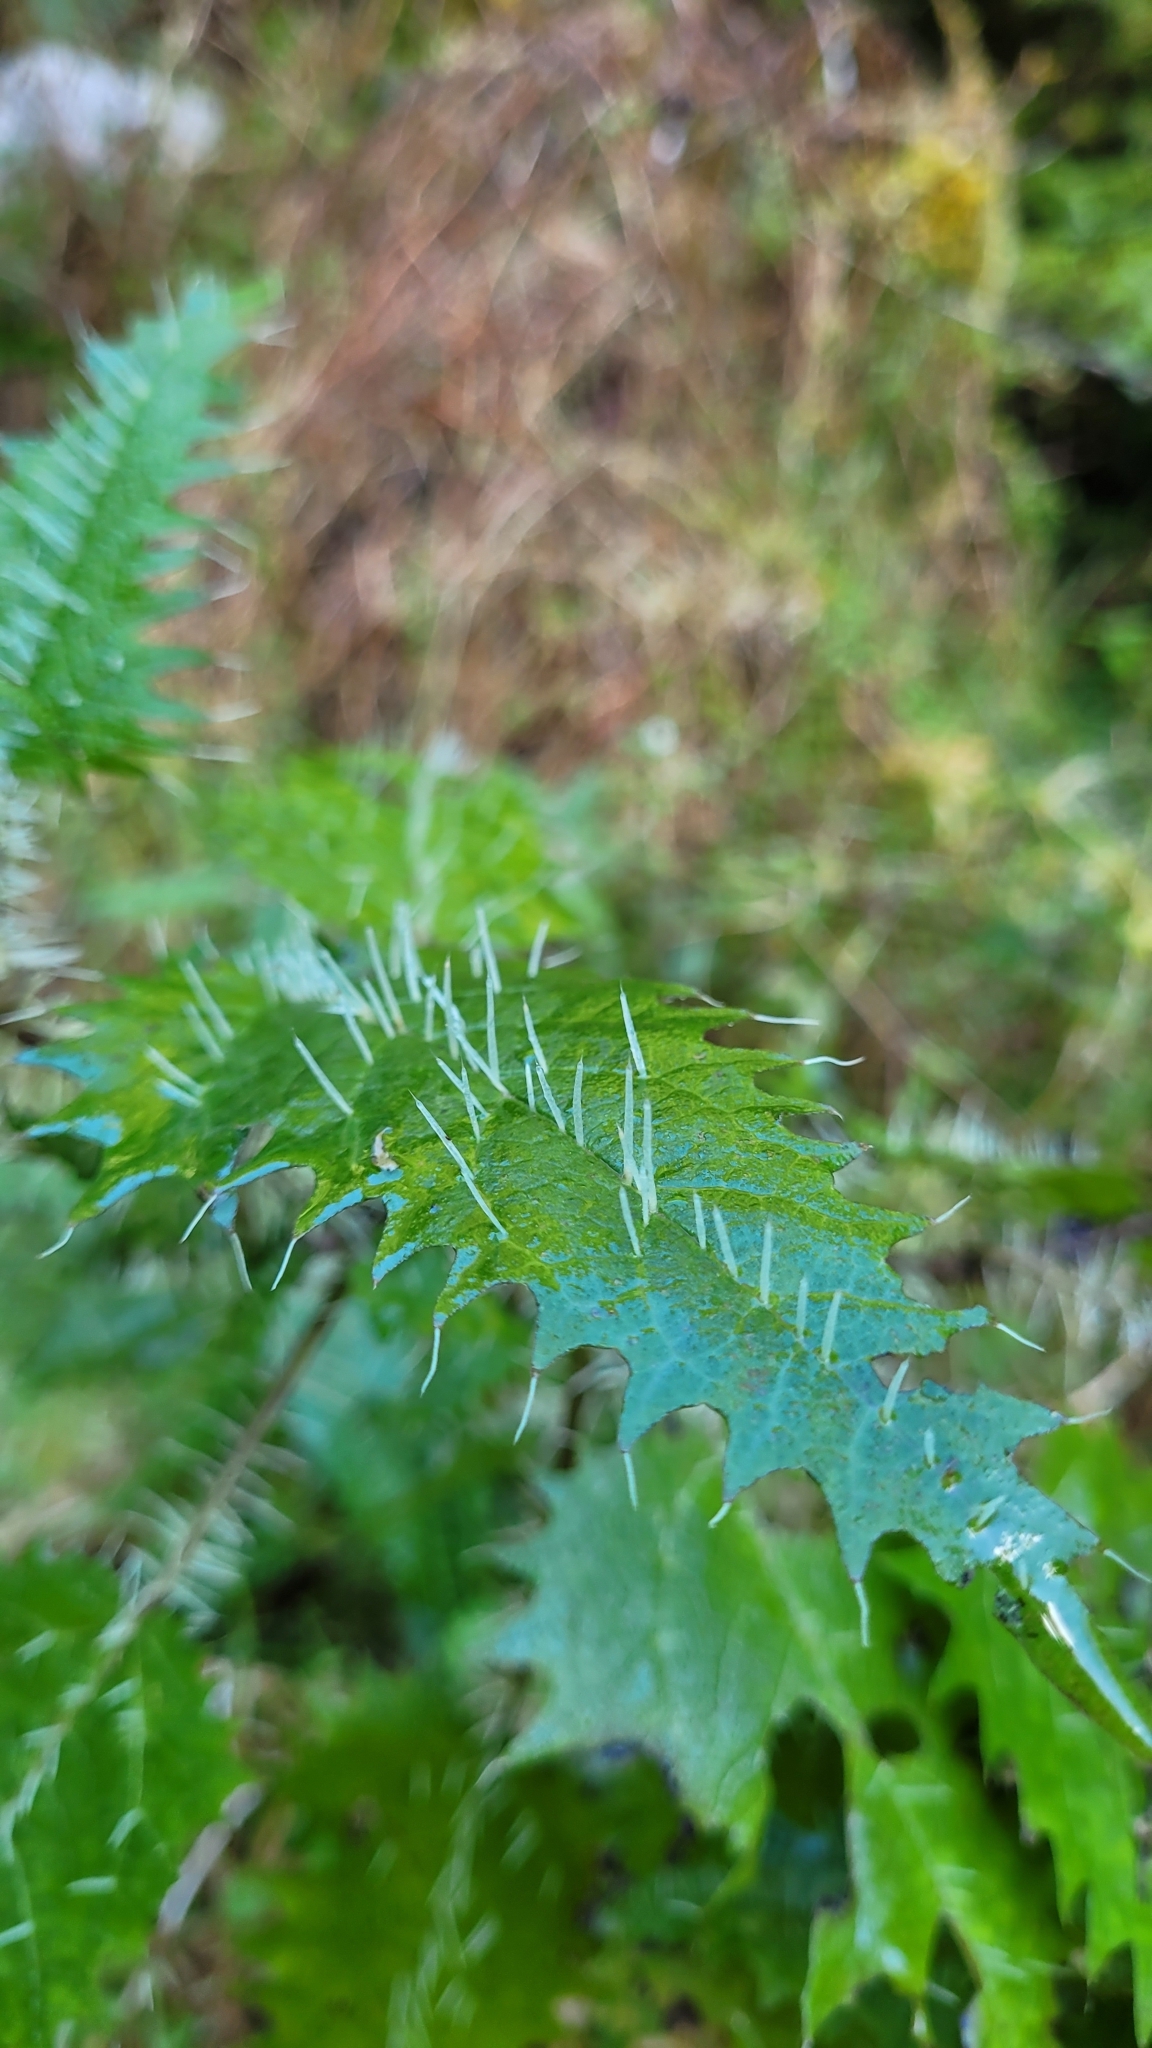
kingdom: Plantae
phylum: Tracheophyta
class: Magnoliopsida
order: Rosales
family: Urticaceae
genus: Urtica
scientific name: Urtica ferox
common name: Tree nettle
